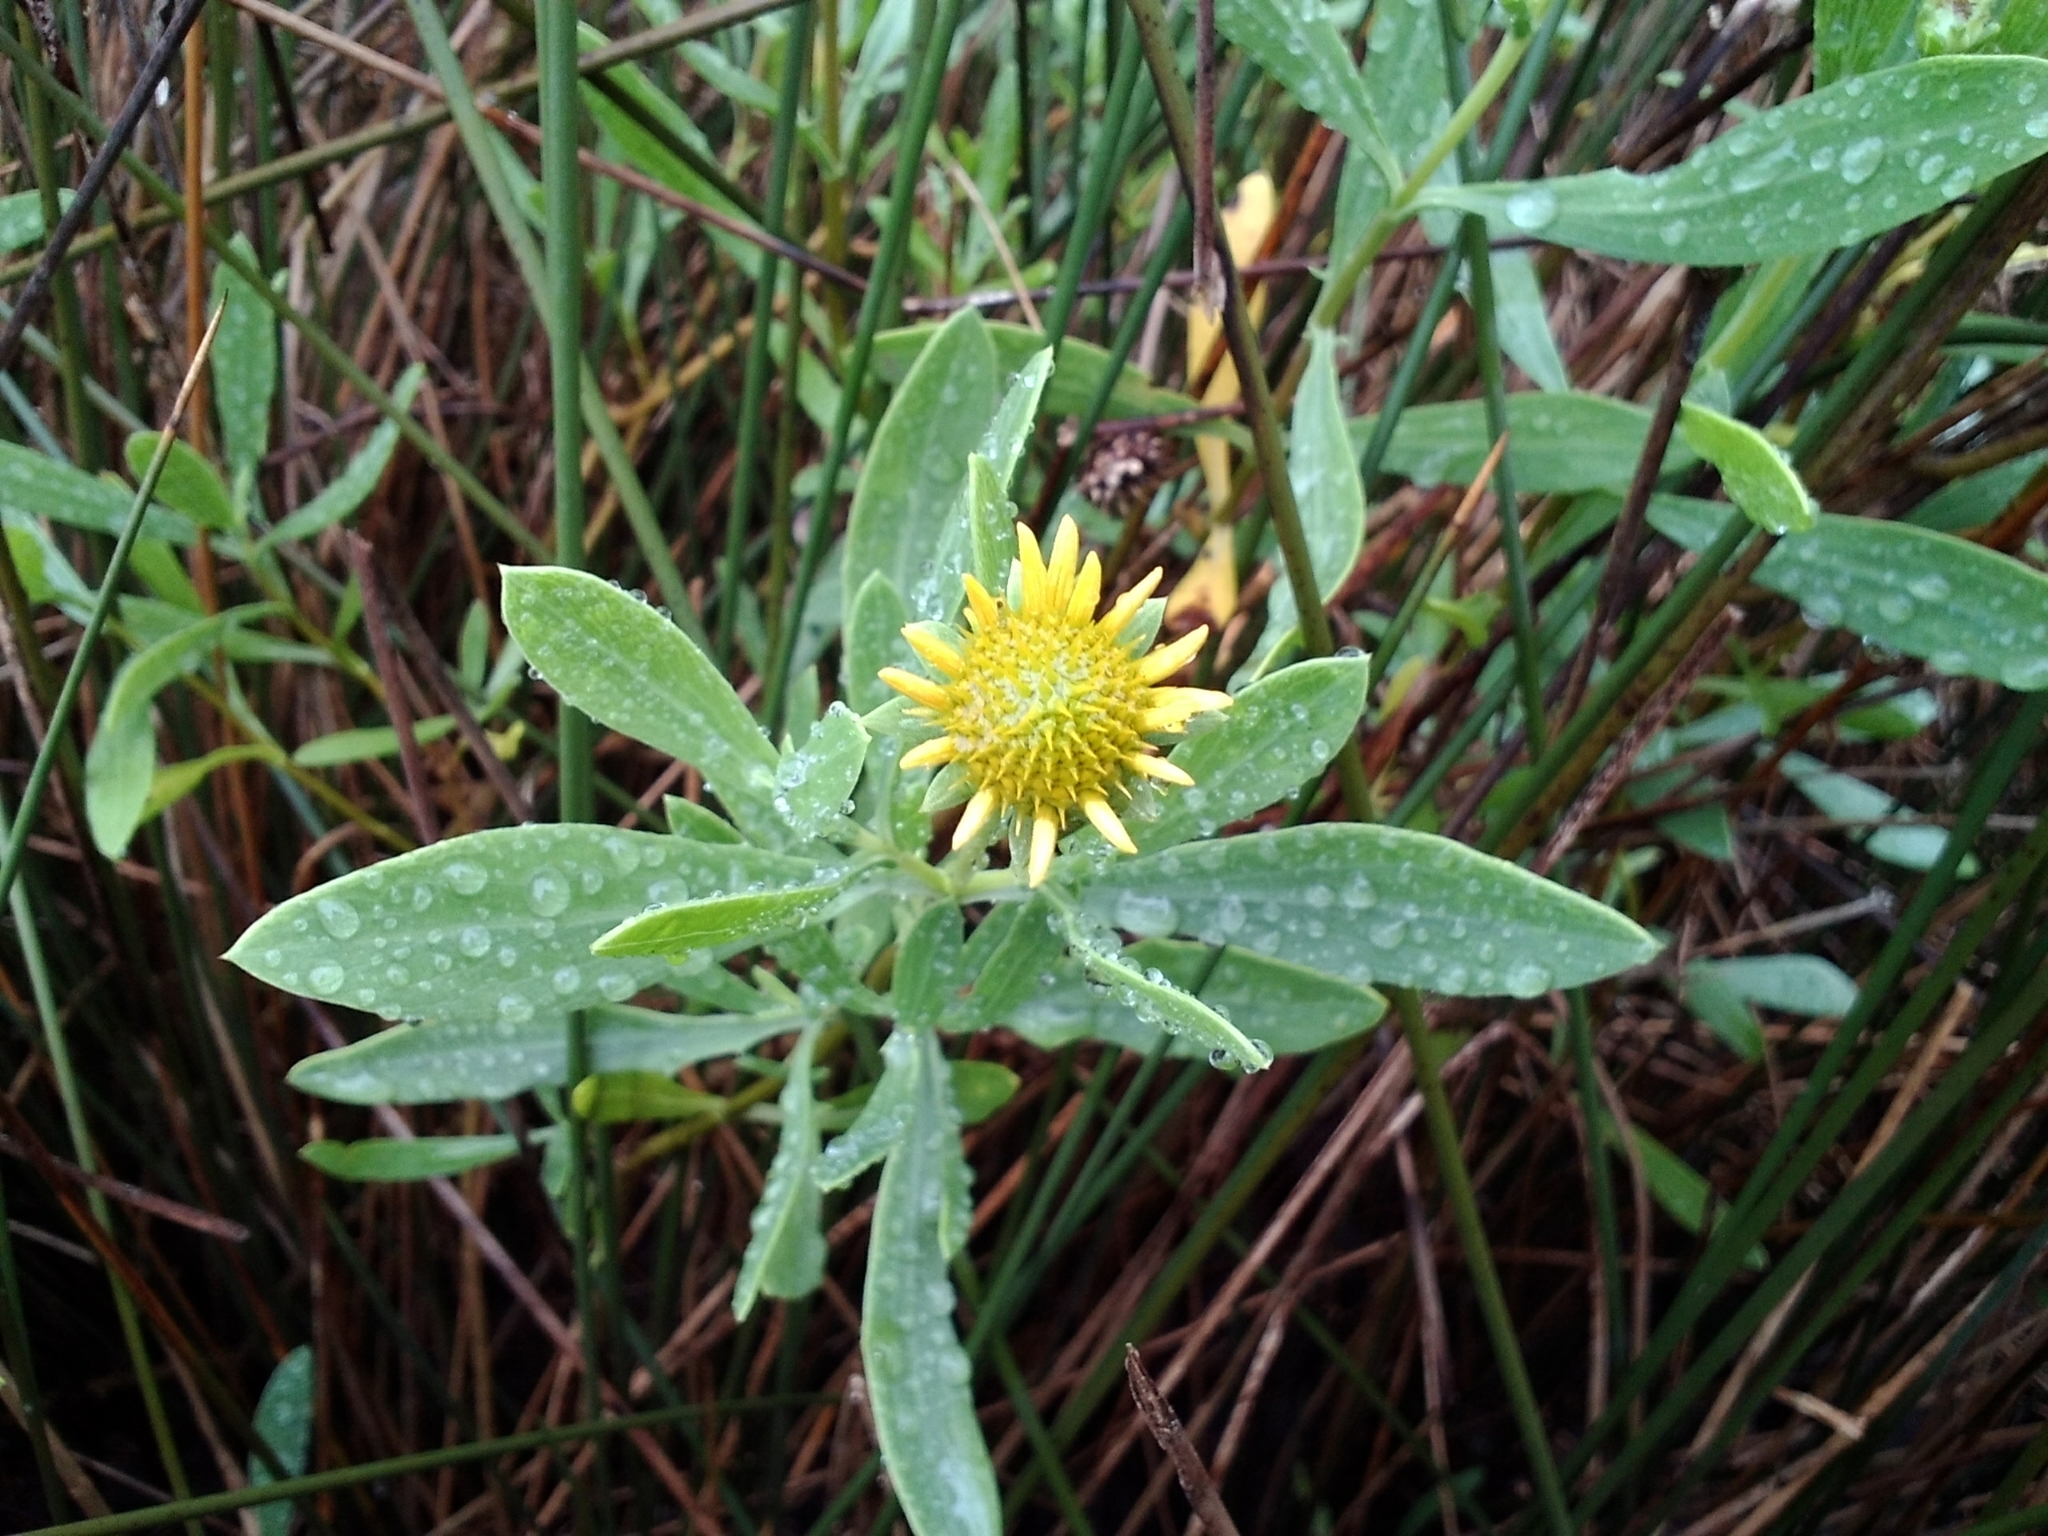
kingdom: Plantae
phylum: Tracheophyta
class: Magnoliopsida
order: Asterales
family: Asteraceae
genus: Borrichia
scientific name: Borrichia frutescens
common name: Sea oxeye
